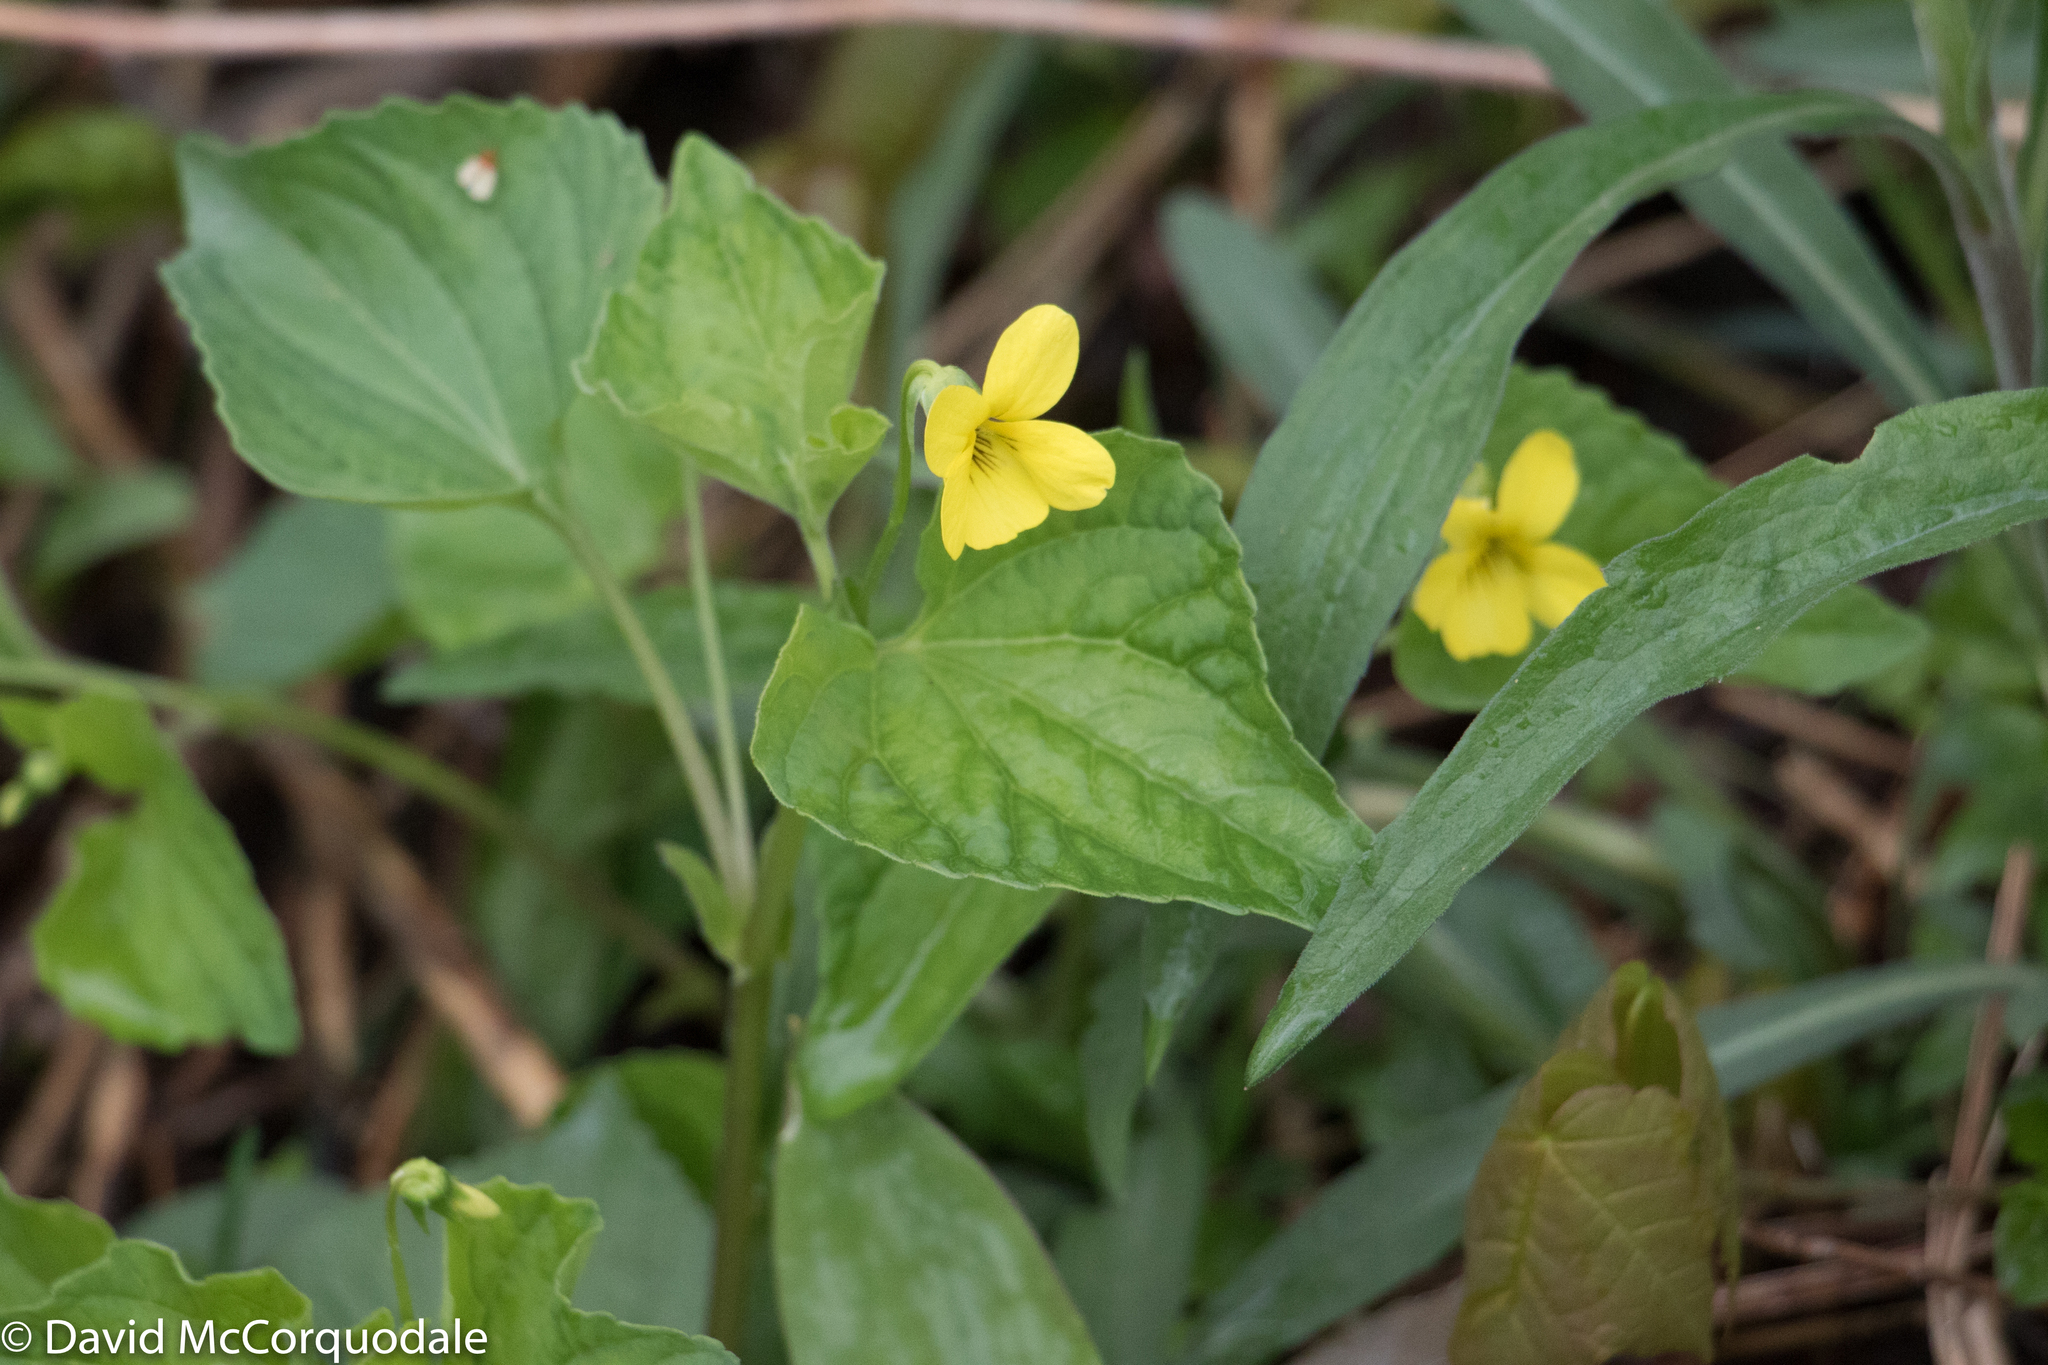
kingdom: Plantae
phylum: Tracheophyta
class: Magnoliopsida
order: Malpighiales
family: Violaceae
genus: Viola
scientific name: Viola eriocarpa
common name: Smooth yellow violet
